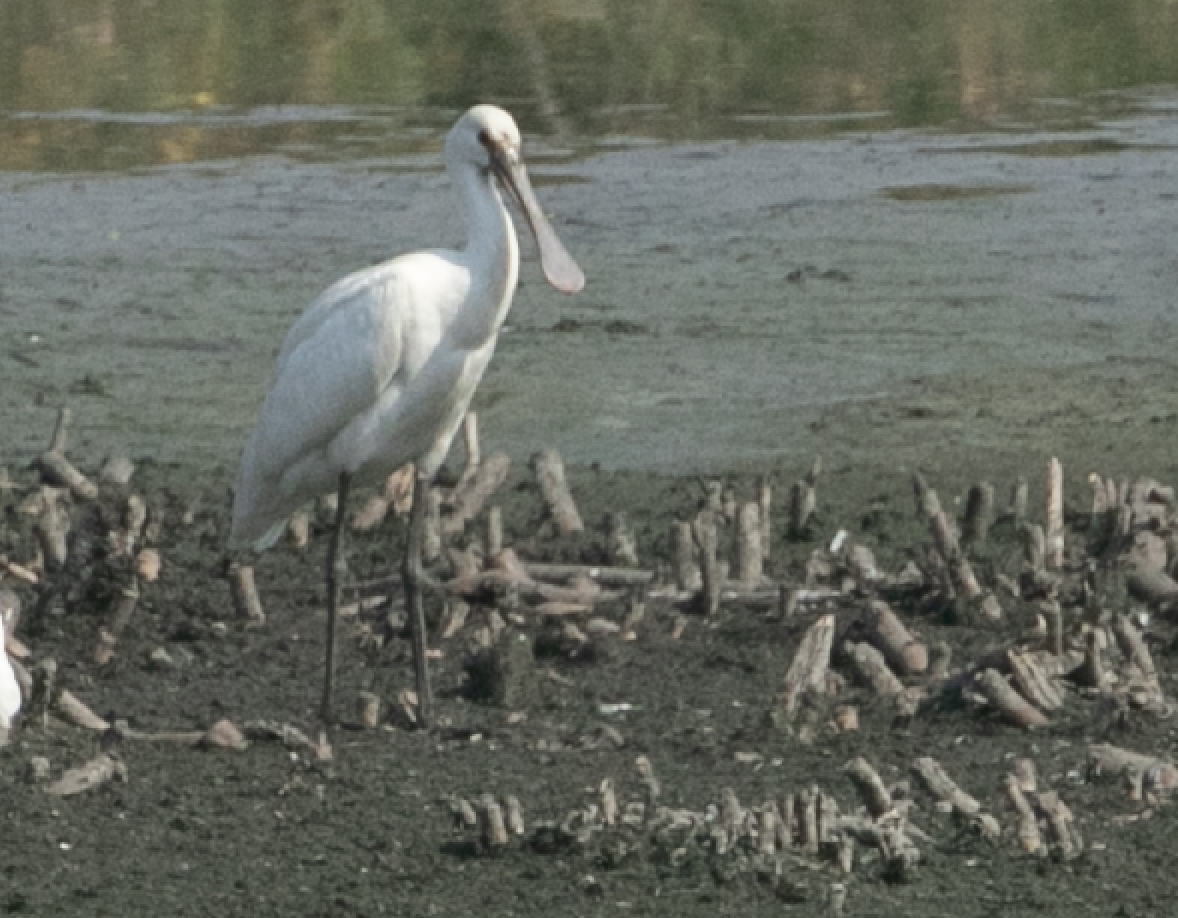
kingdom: Animalia
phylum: Chordata
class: Aves
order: Pelecaniformes
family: Threskiornithidae
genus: Platalea
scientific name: Platalea leucorodia
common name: Eurasian spoonbill
